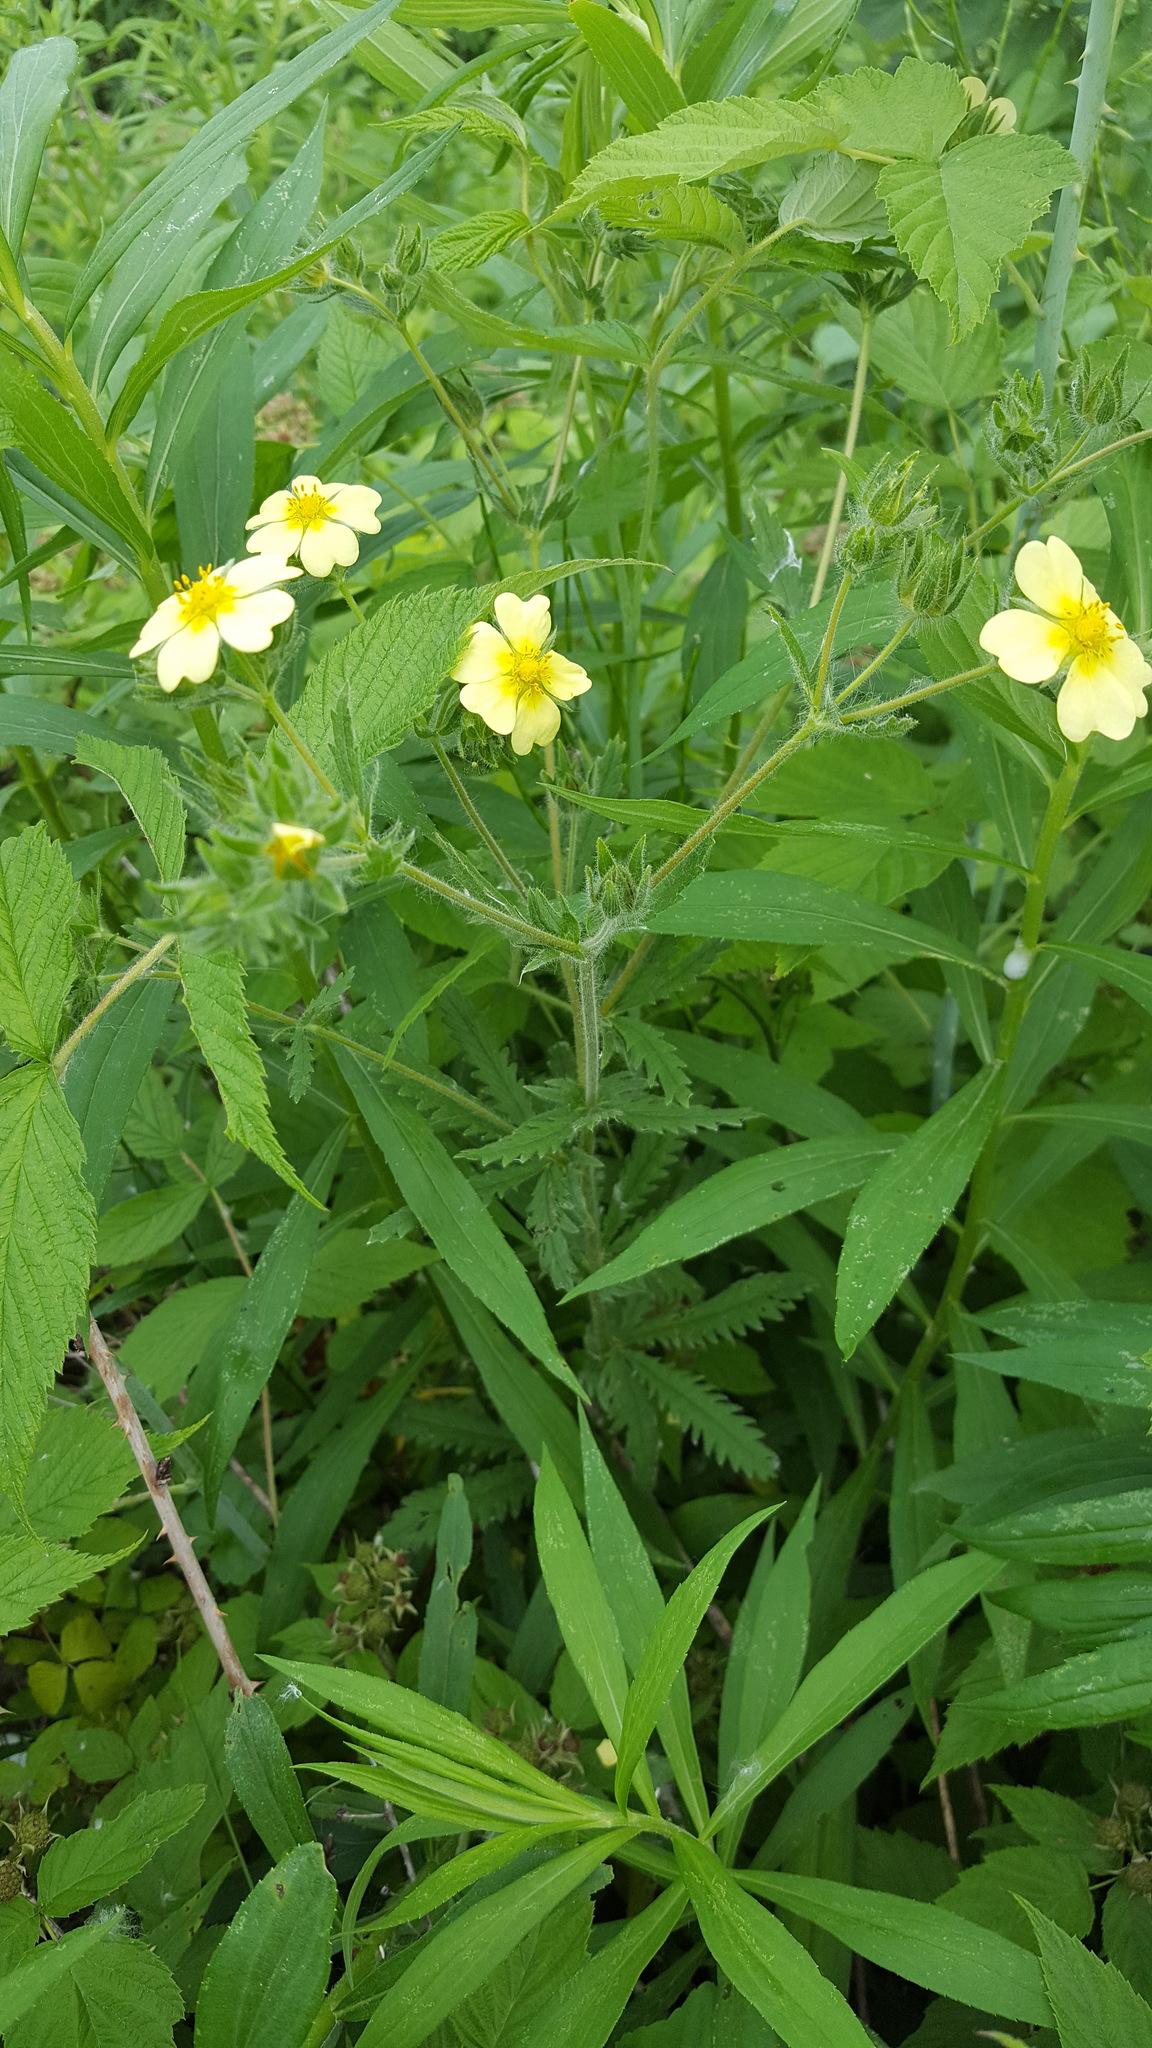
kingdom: Plantae
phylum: Tracheophyta
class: Magnoliopsida
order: Rosales
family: Rosaceae
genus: Potentilla
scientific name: Potentilla recta
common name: Sulphur cinquefoil
